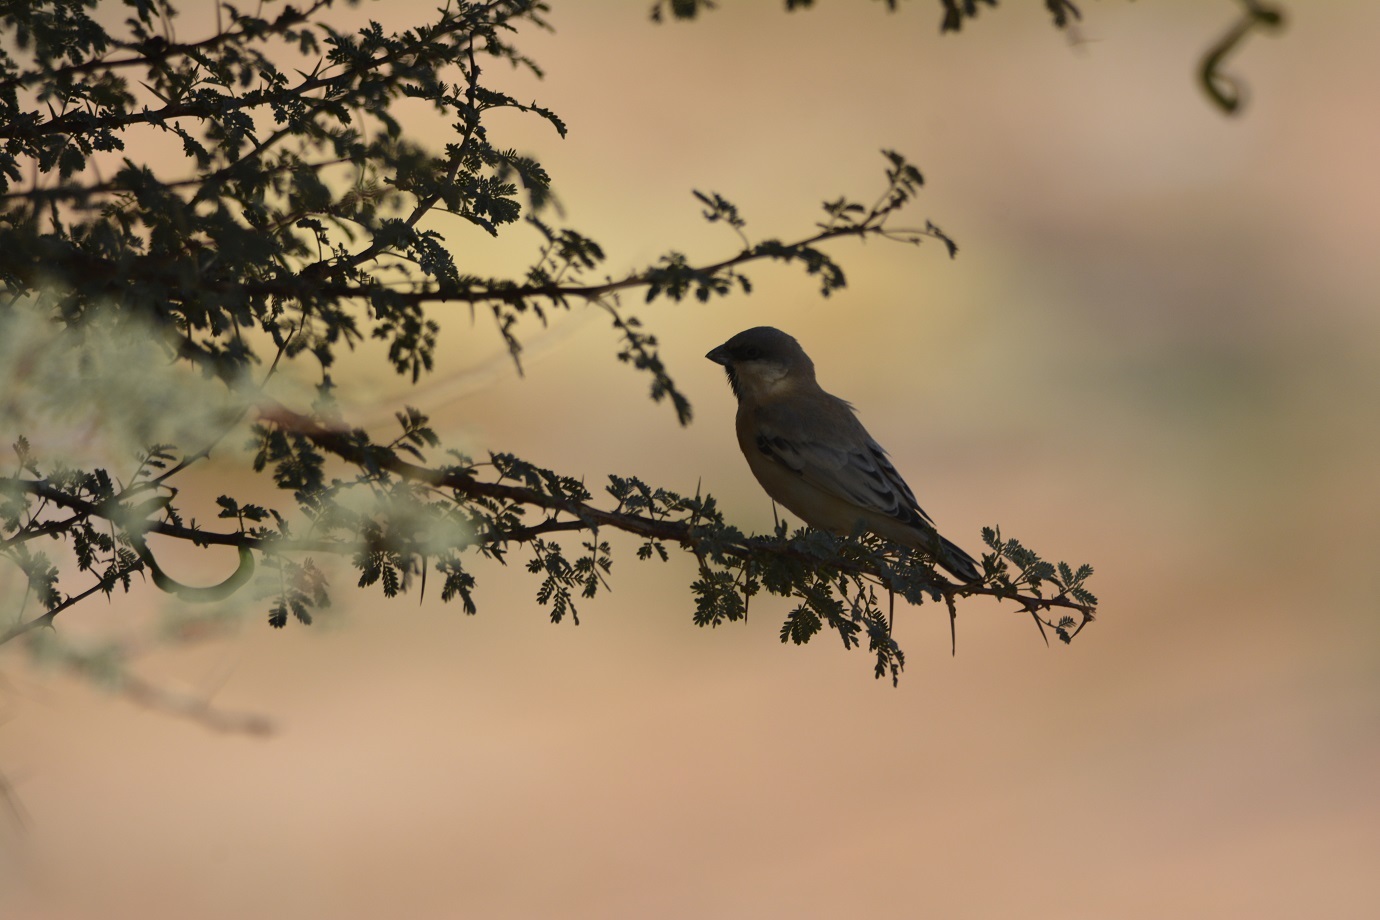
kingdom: Animalia
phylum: Chordata
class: Aves
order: Passeriformes
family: Passeridae
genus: Passer
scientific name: Passer simplex
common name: Desert sparrow
